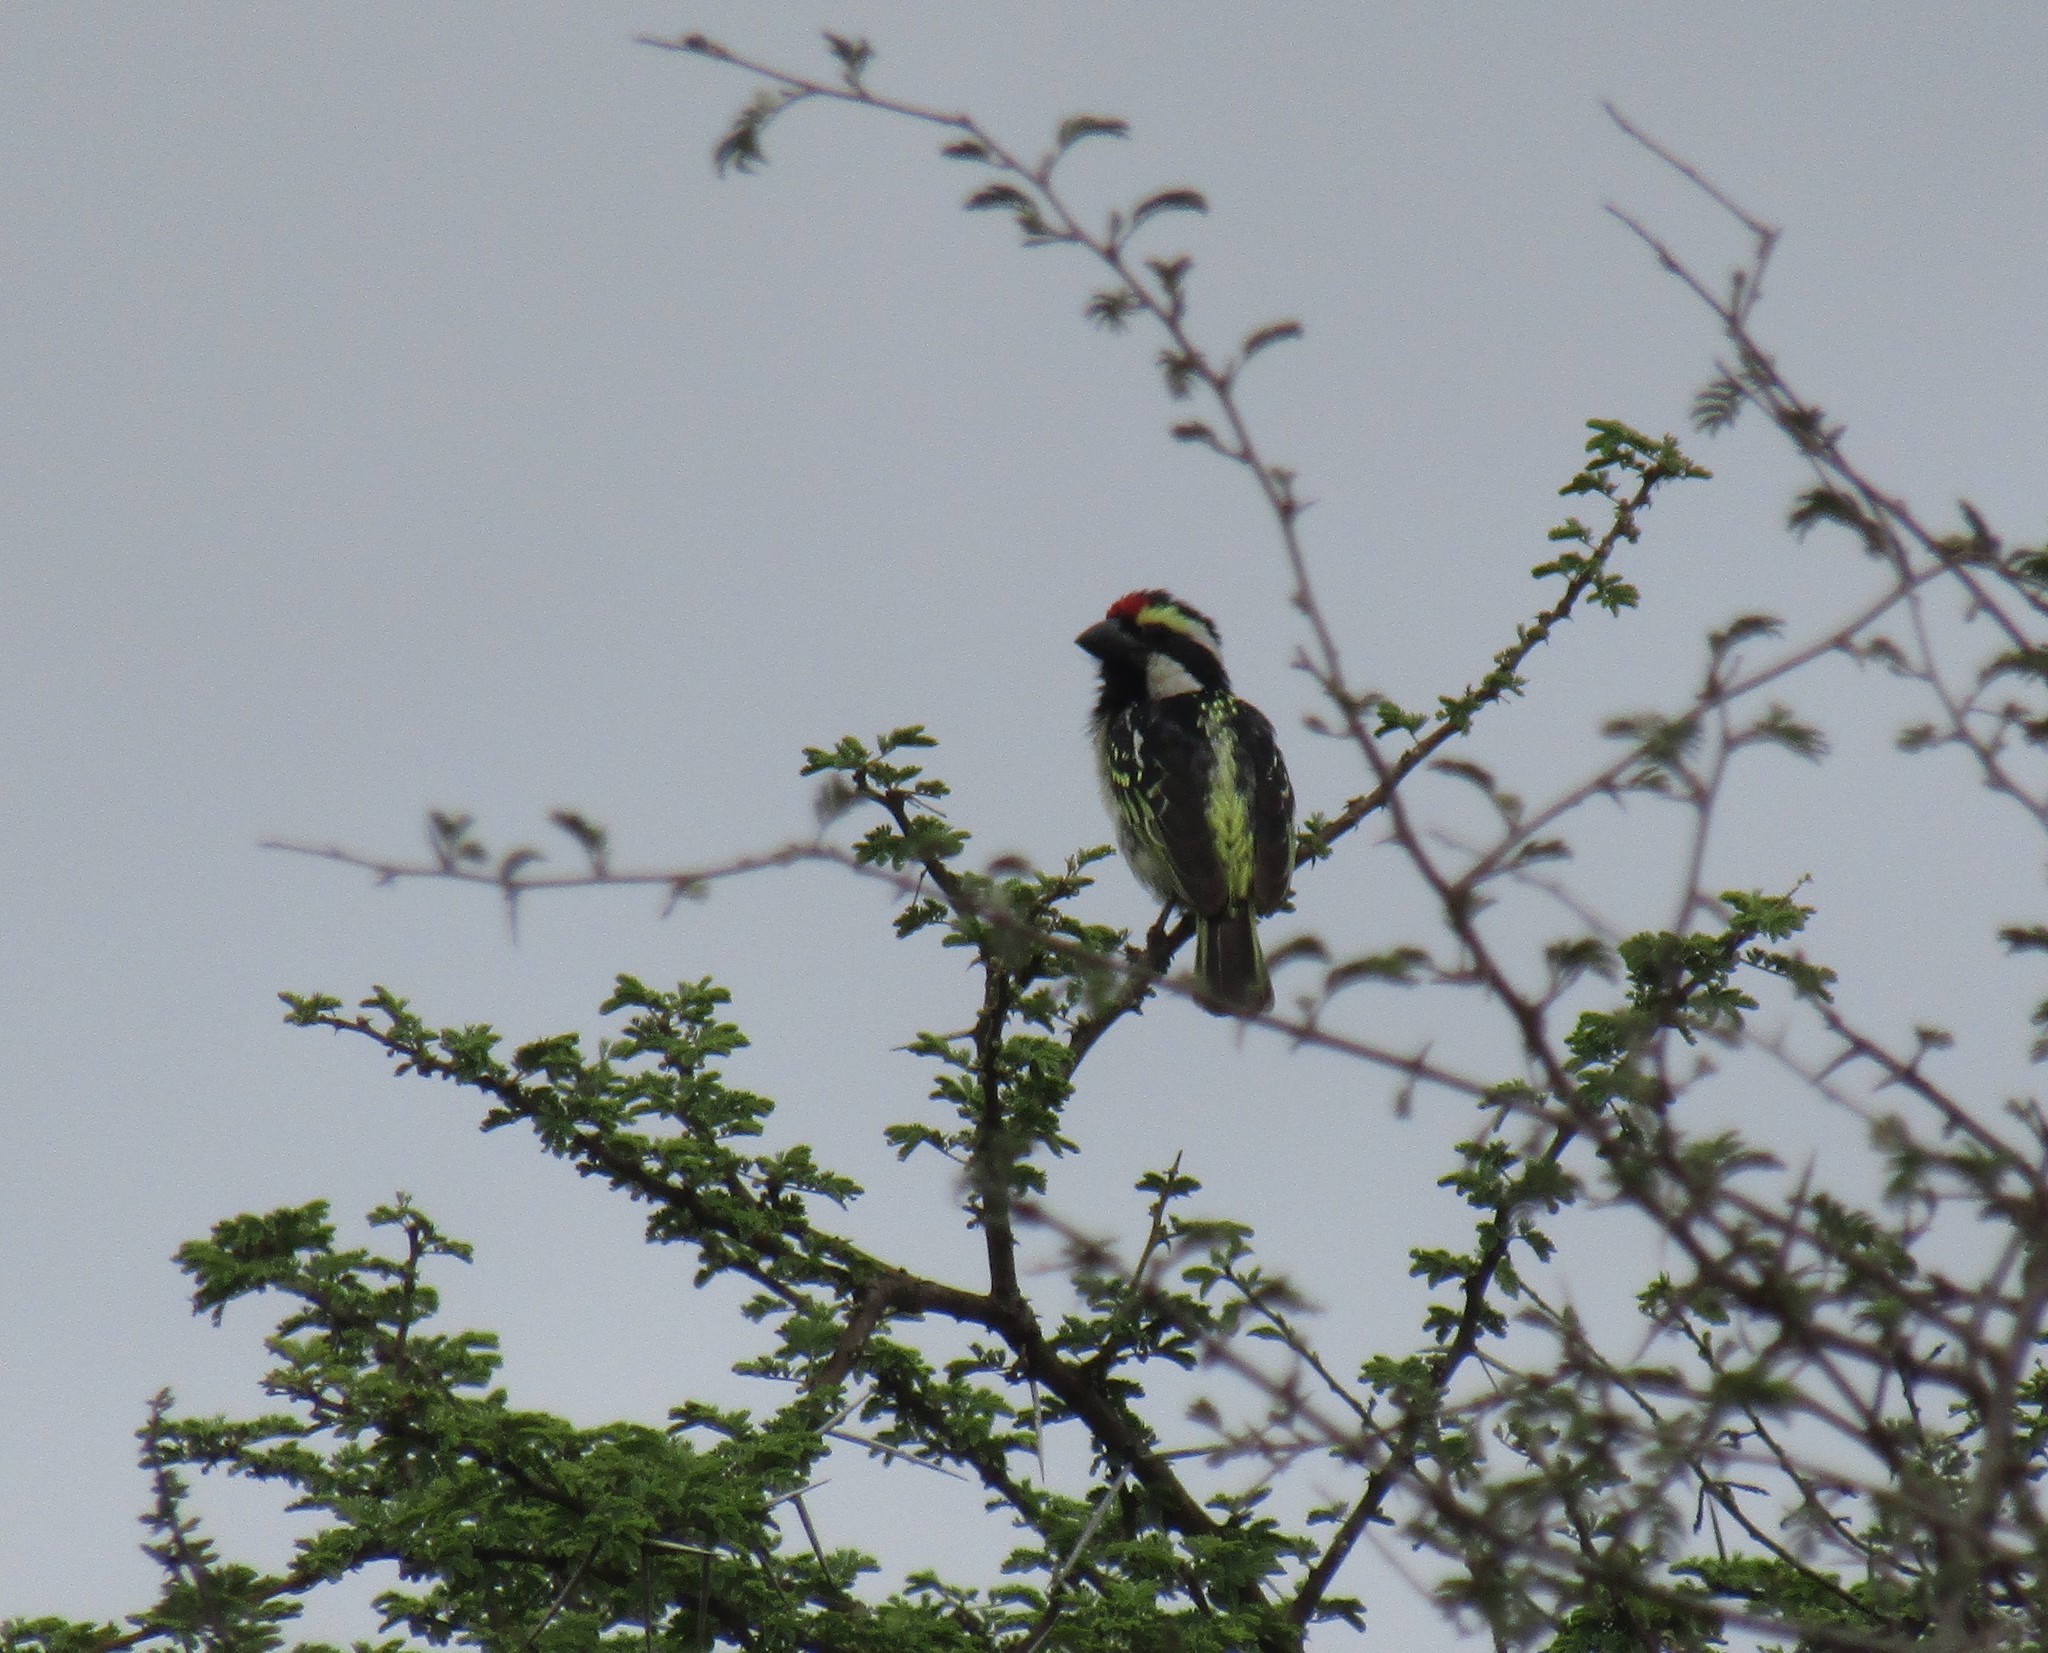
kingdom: Animalia
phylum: Chordata
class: Aves
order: Piciformes
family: Lybiidae
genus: Tricholaema
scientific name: Tricholaema leucomelas
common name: Acacia pied barbet
